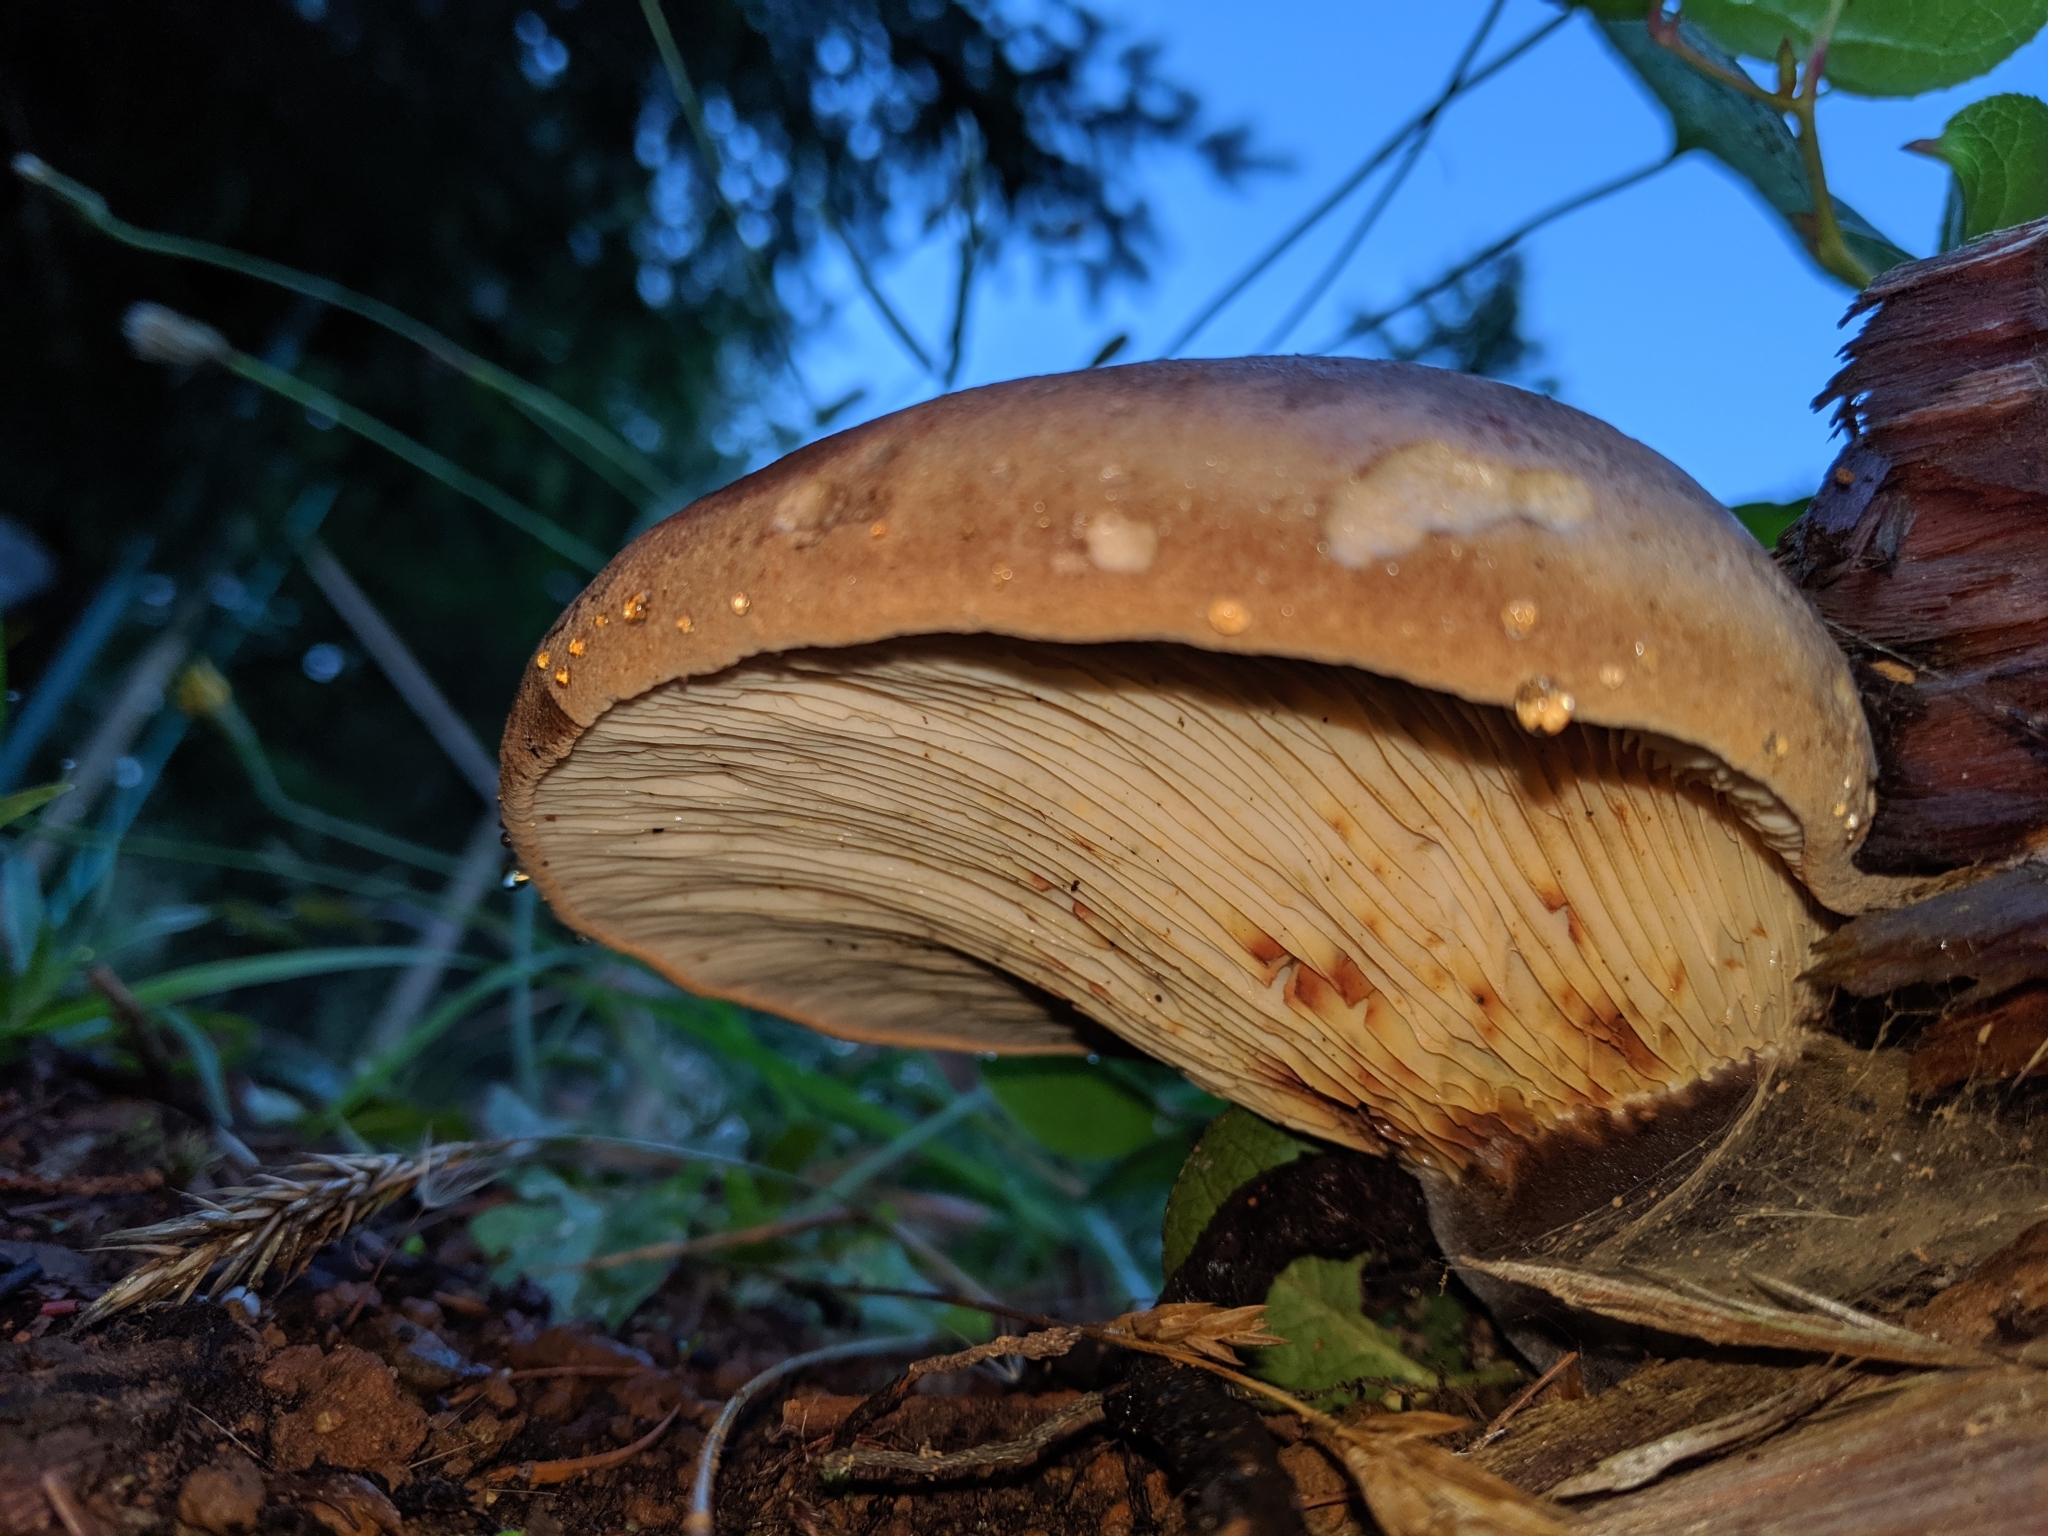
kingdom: Fungi
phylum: Basidiomycota
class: Agaricomycetes
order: Boletales
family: Tapinellaceae
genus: Tapinella
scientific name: Tapinella atrotomentosa
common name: Velvet rollrim
